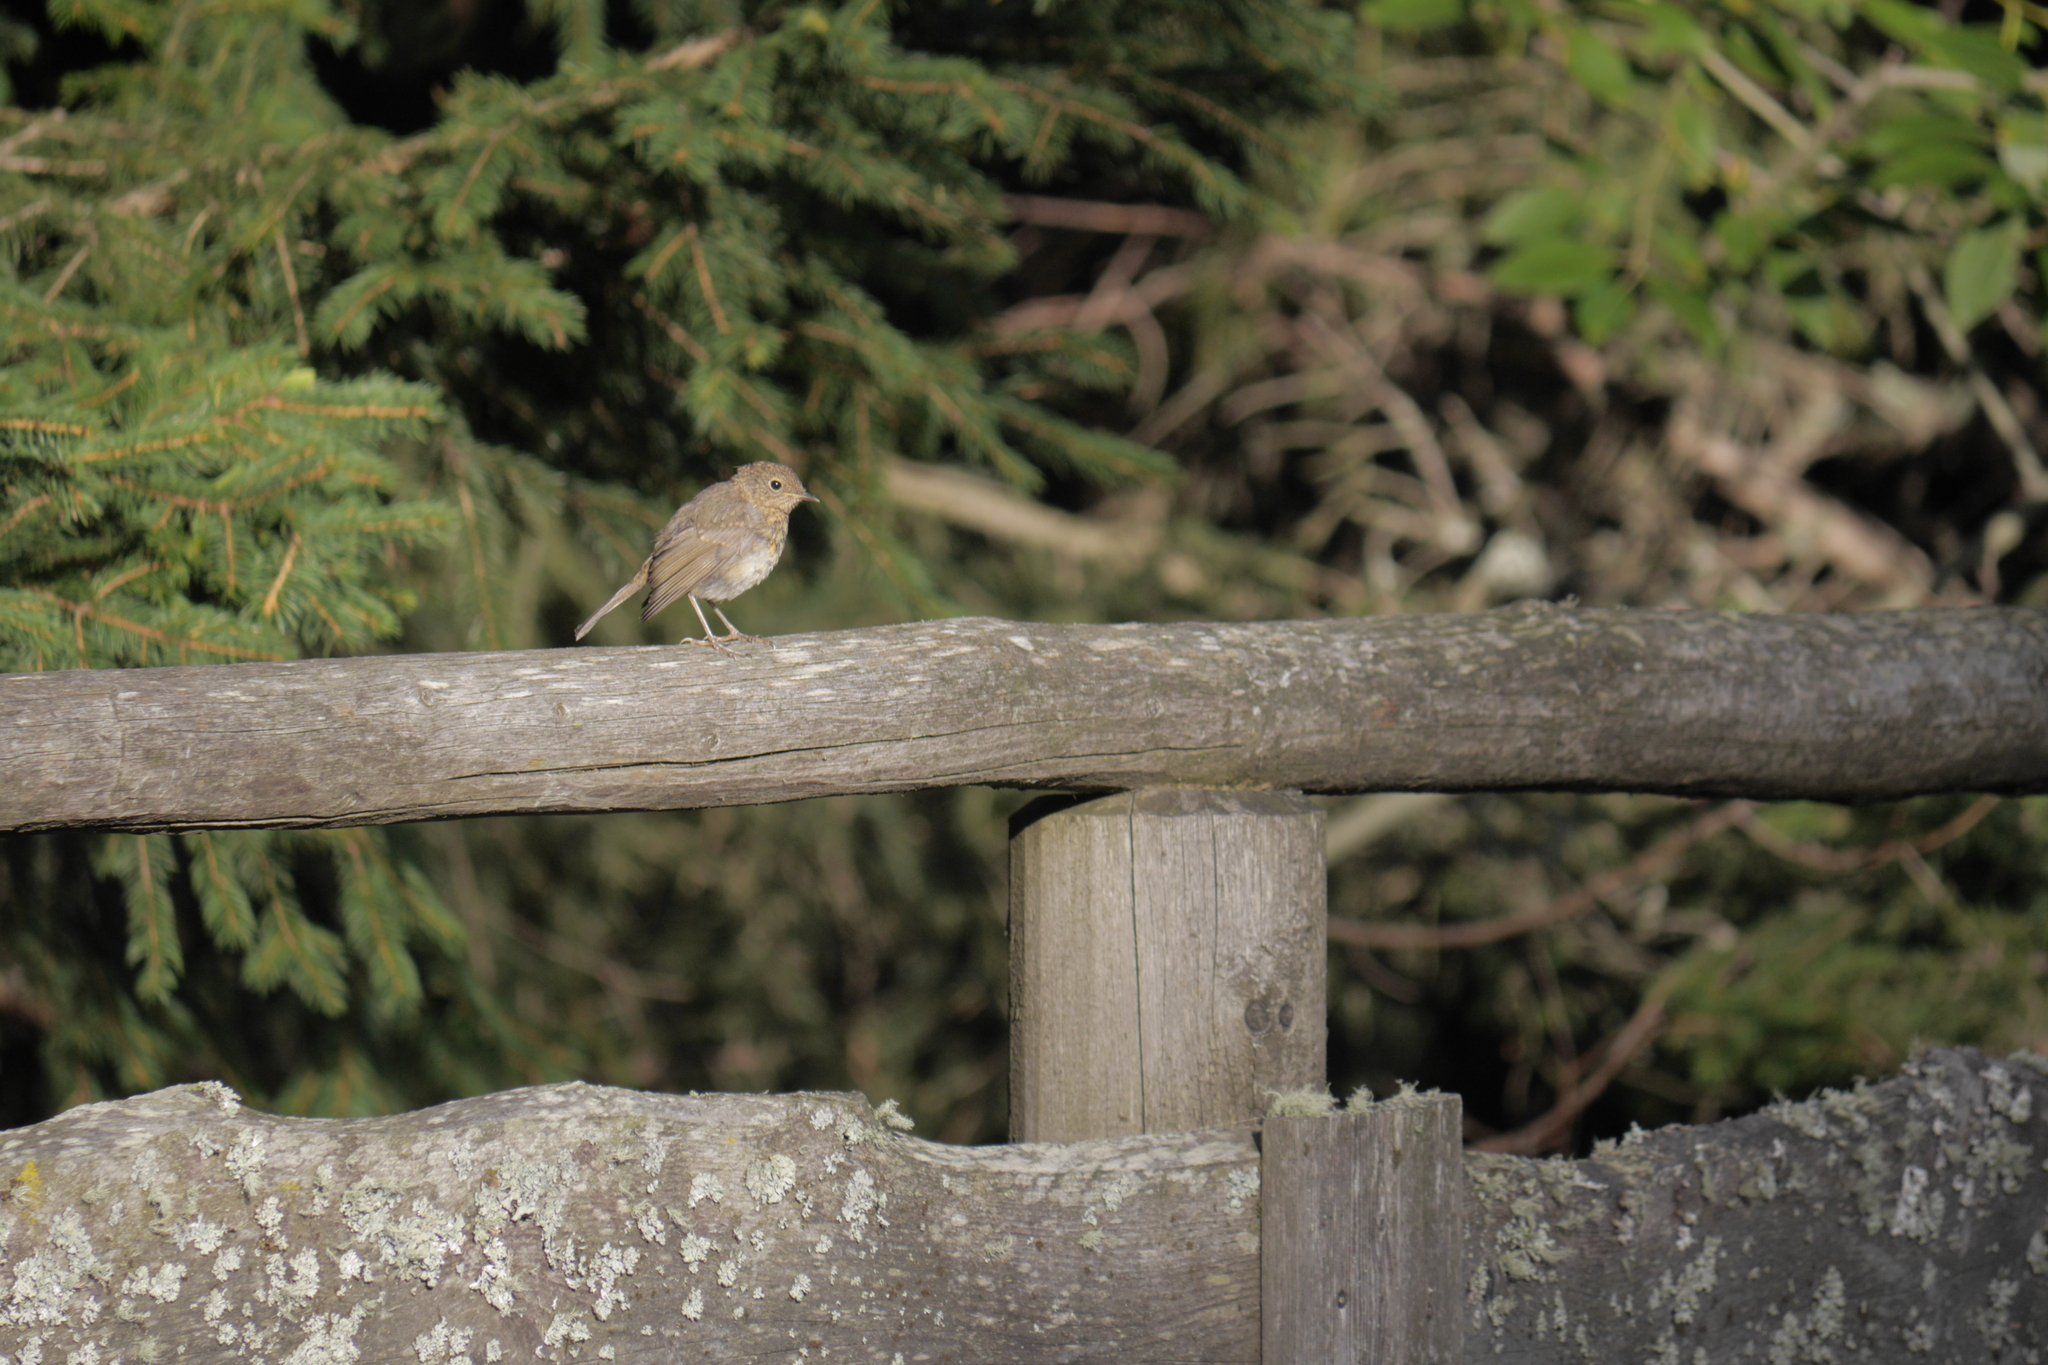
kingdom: Animalia
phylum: Chordata
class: Aves
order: Passeriformes
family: Muscicapidae
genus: Erithacus
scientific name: Erithacus rubecula
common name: European robin
